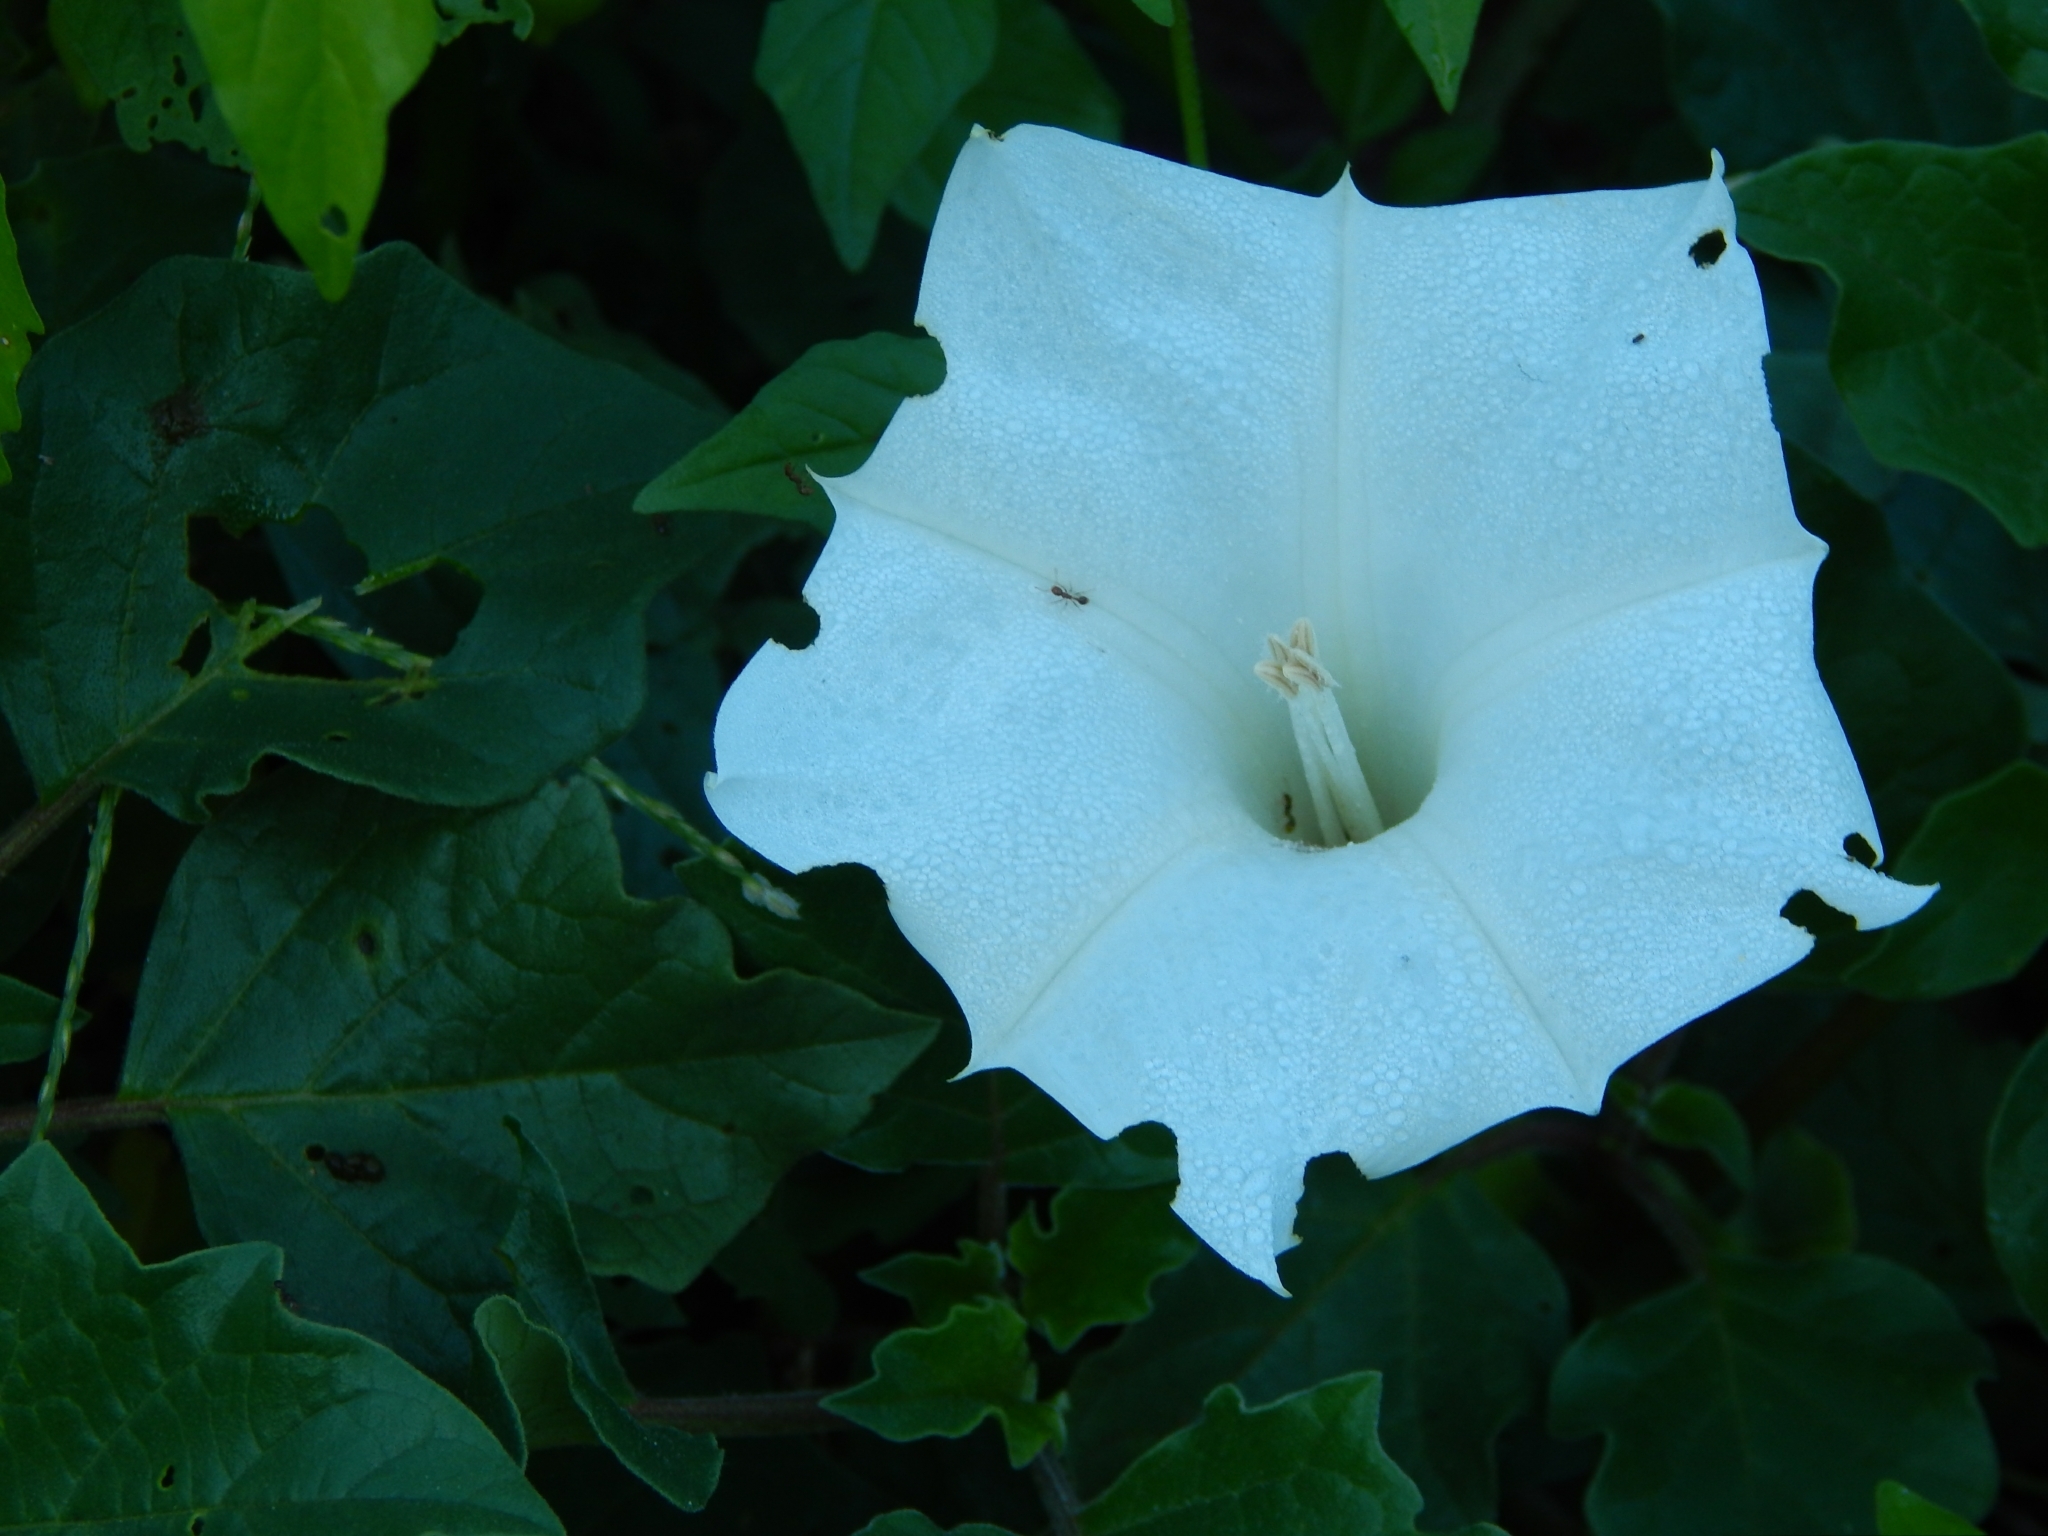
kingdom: Plantae
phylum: Tracheophyta
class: Magnoliopsida
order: Solanales
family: Solanaceae
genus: Datura
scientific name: Datura wrightii
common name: Sacred thorn-apple
